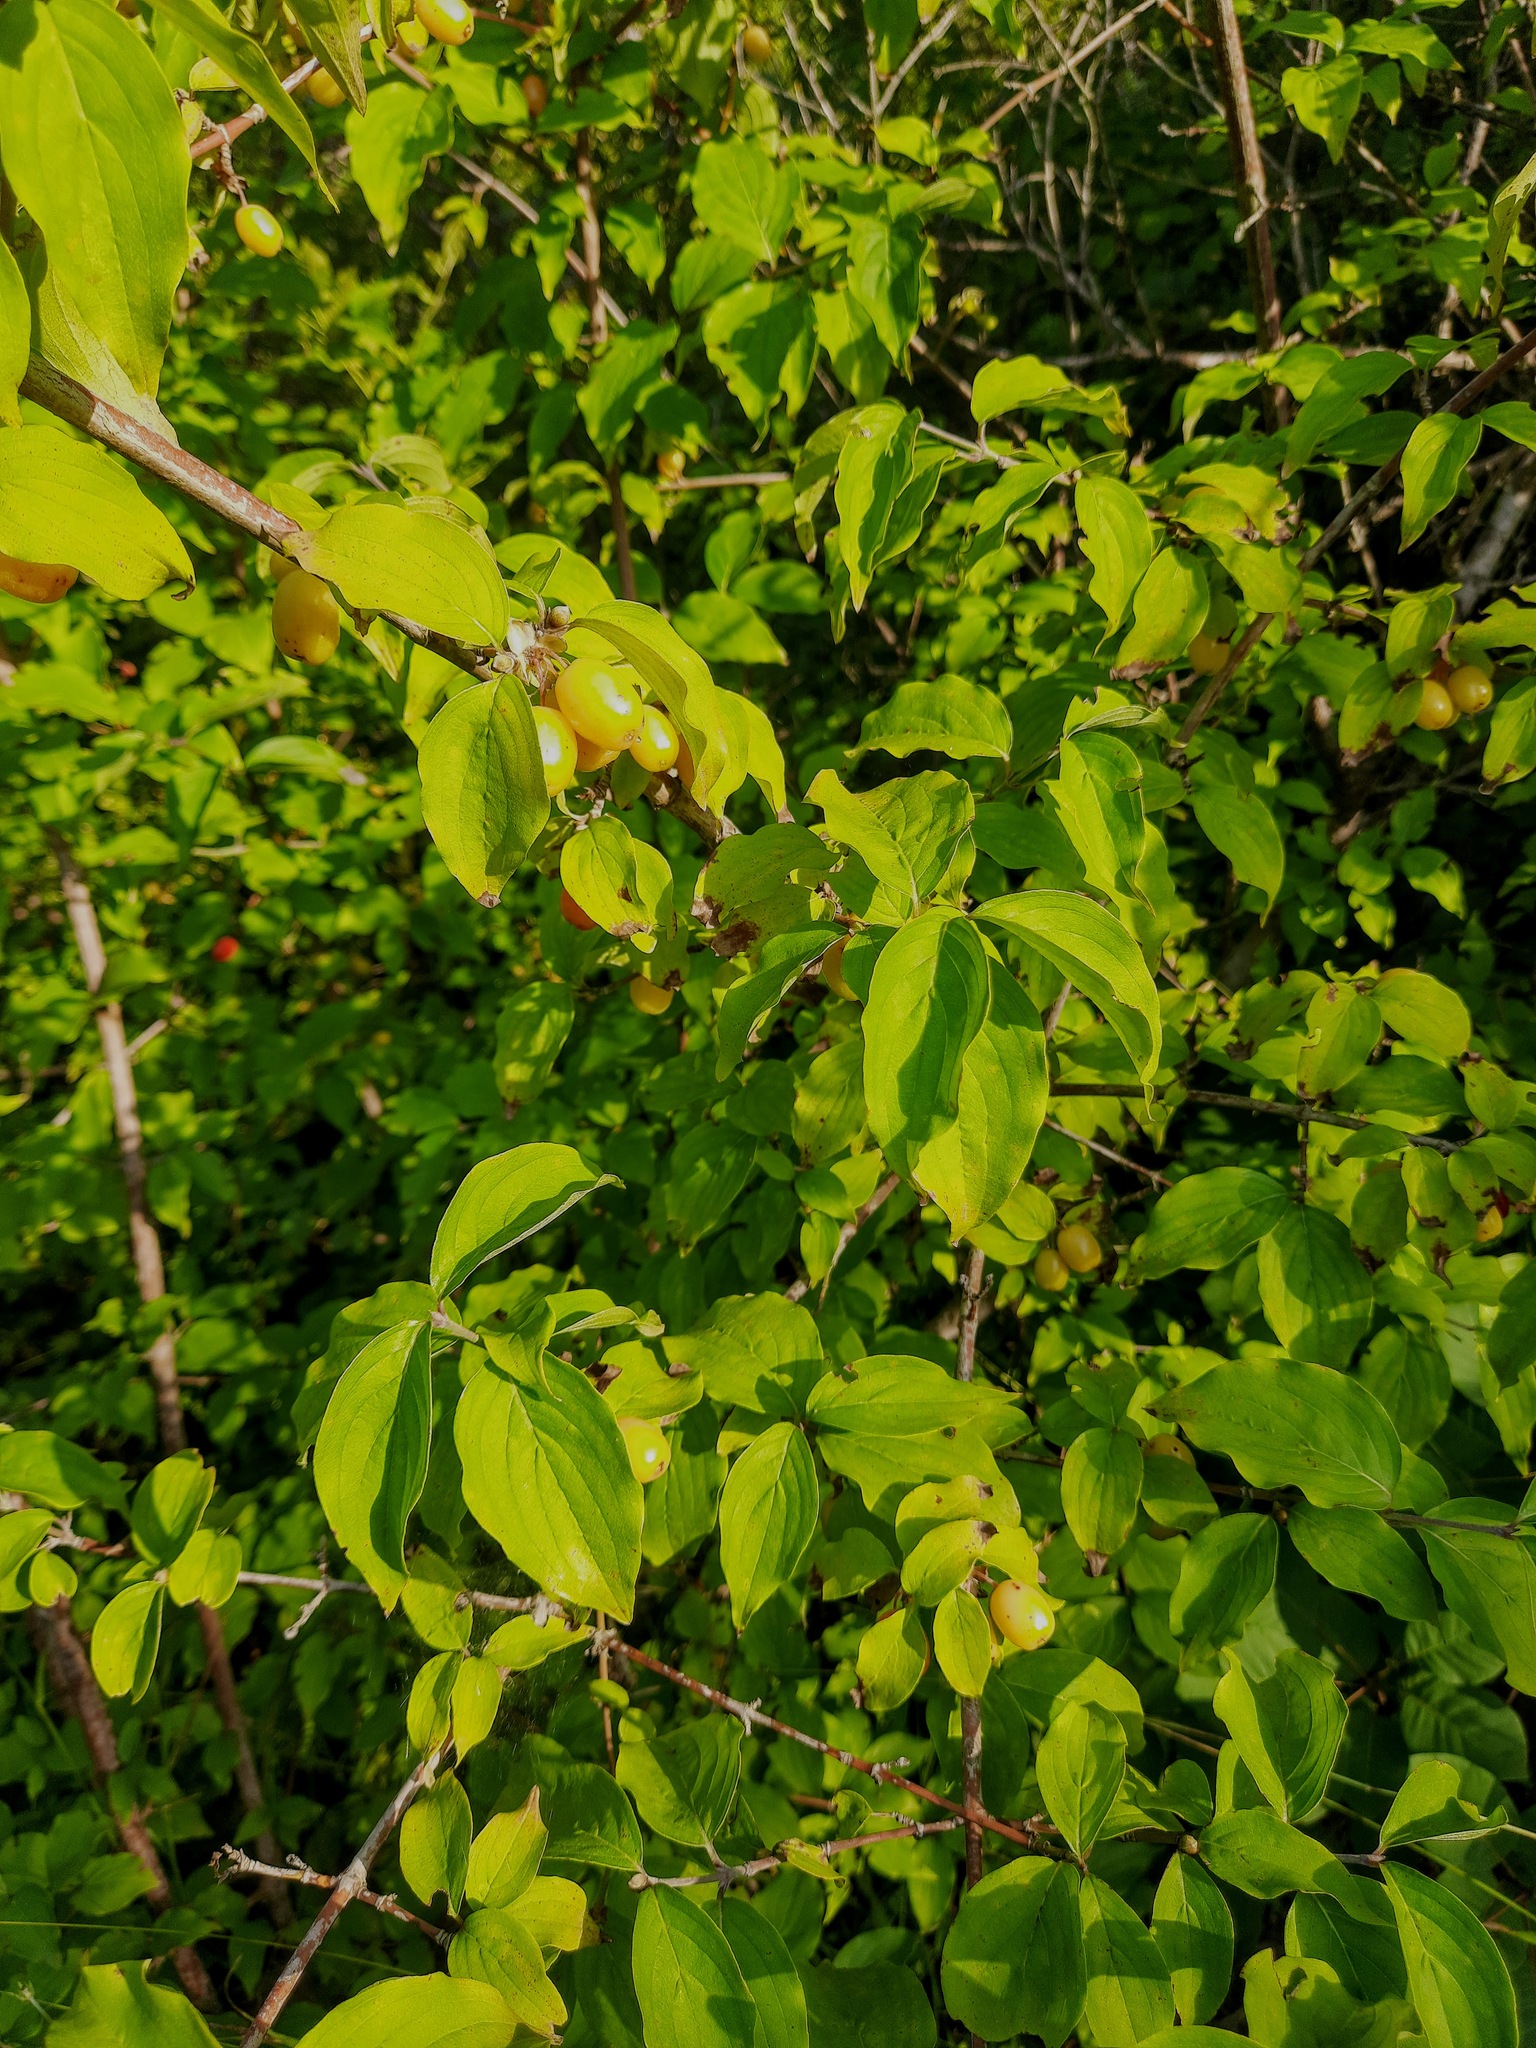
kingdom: Plantae
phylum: Tracheophyta
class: Magnoliopsida
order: Cornales
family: Cornaceae
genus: Cornus
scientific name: Cornus mas
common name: Cornelian-cherry
